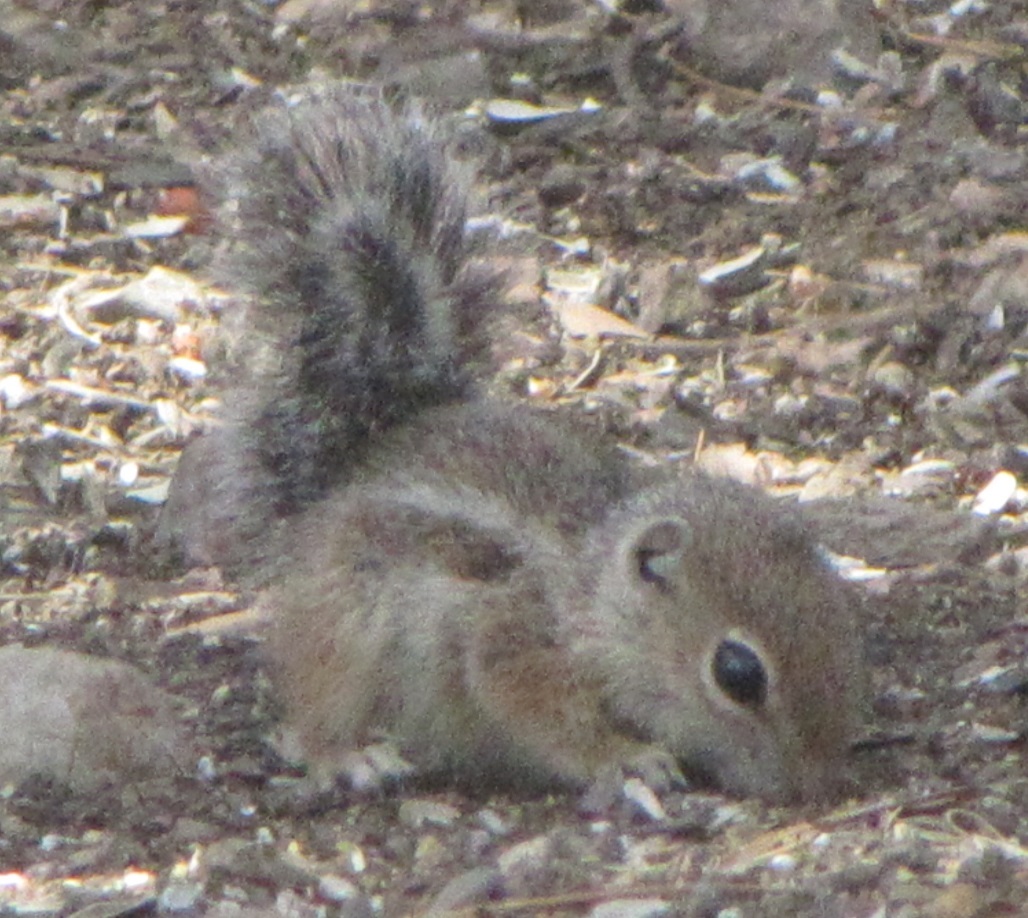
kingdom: Animalia
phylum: Chordata
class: Mammalia
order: Rodentia
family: Sciuridae
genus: Ammospermophilus
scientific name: Ammospermophilus harrisii
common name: Harris's antelope squirrel
